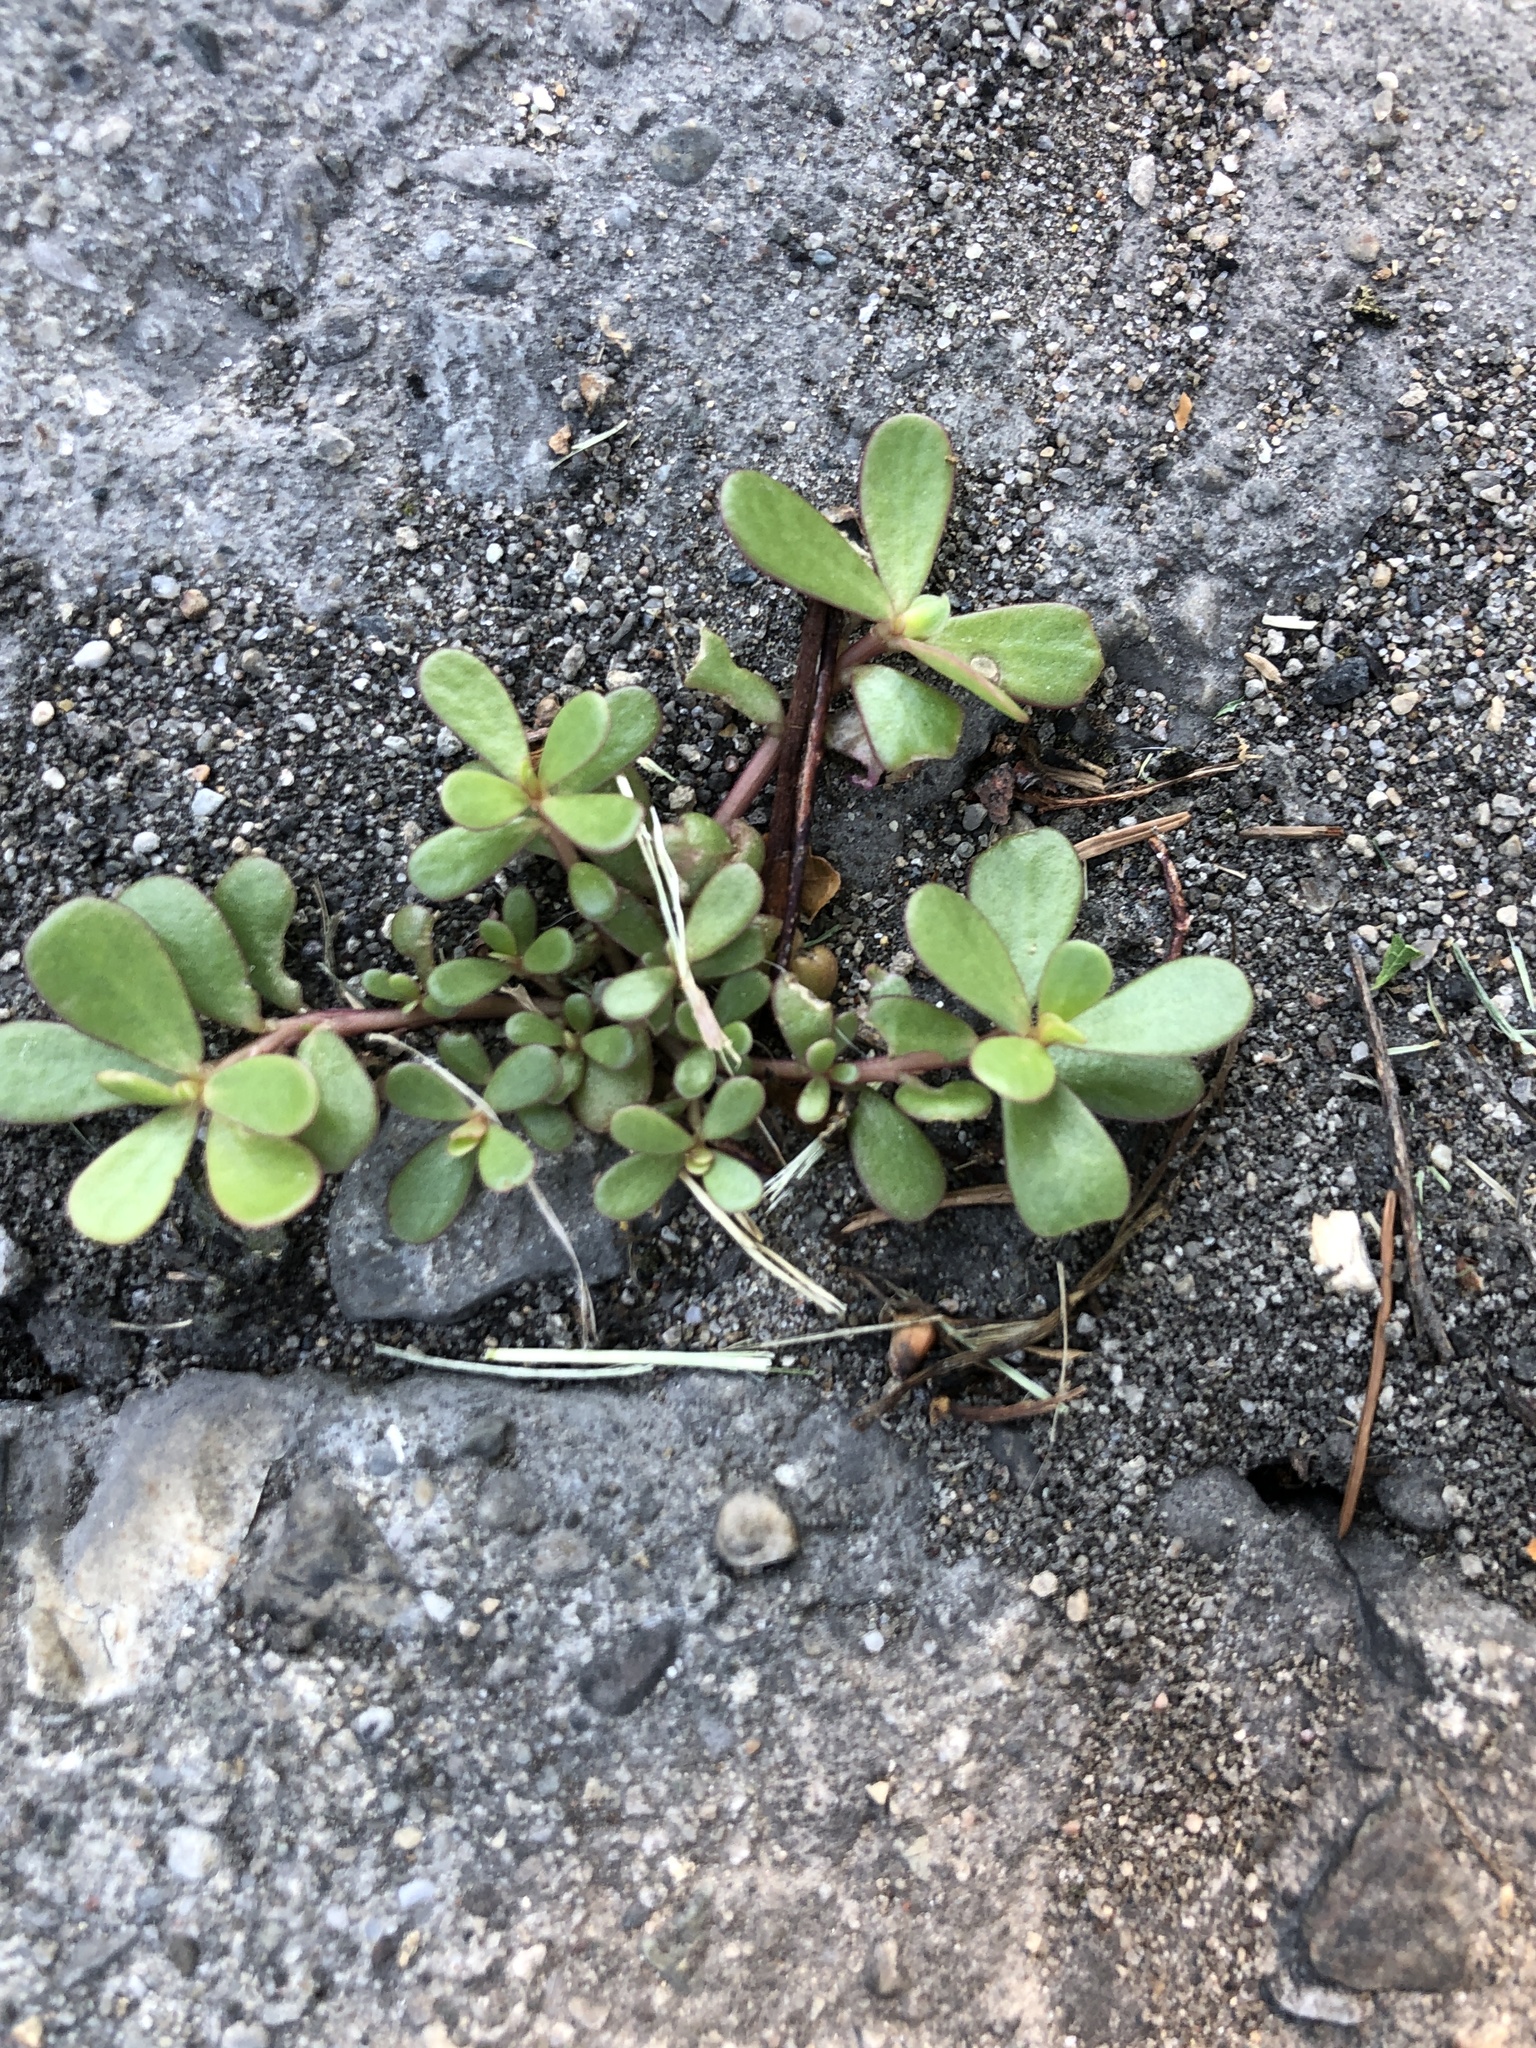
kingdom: Plantae
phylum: Tracheophyta
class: Magnoliopsida
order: Caryophyllales
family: Portulacaceae
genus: Portulaca
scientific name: Portulaca oleracea
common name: Common purslane
